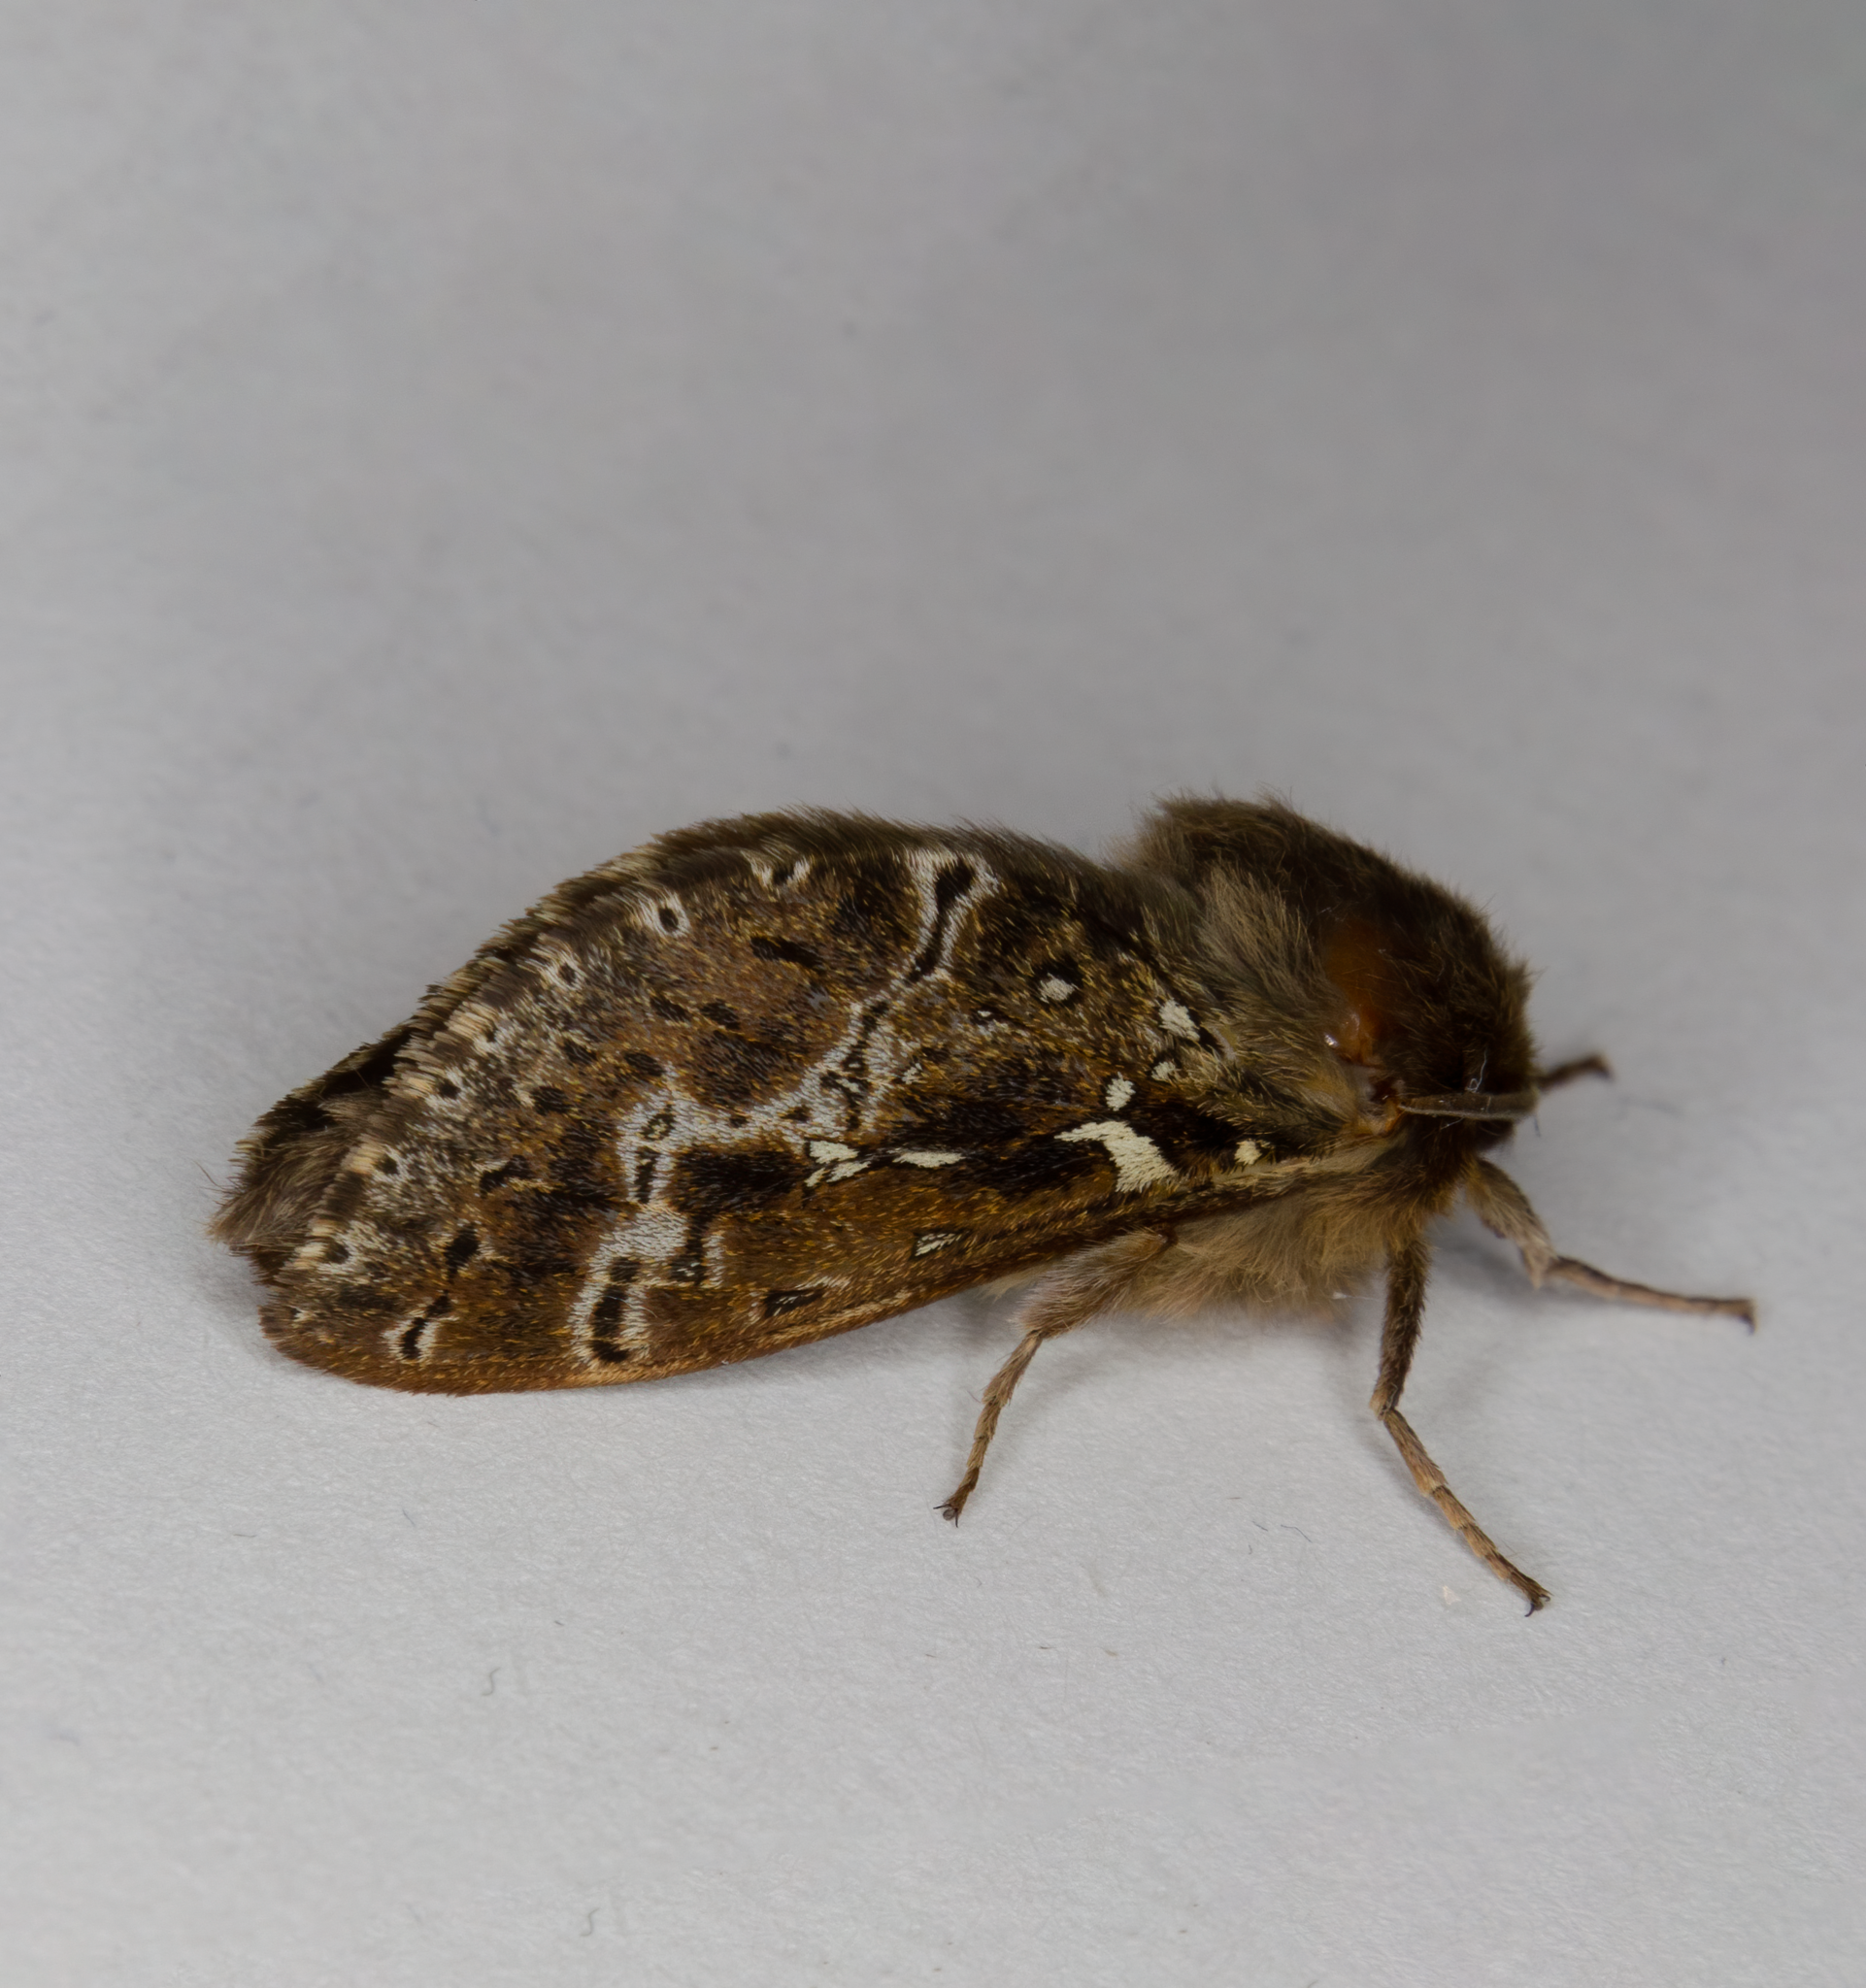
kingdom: Animalia
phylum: Arthropoda
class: Insecta
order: Lepidoptera
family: Hepialidae
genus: Wiseana
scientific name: Wiseana cervinata
